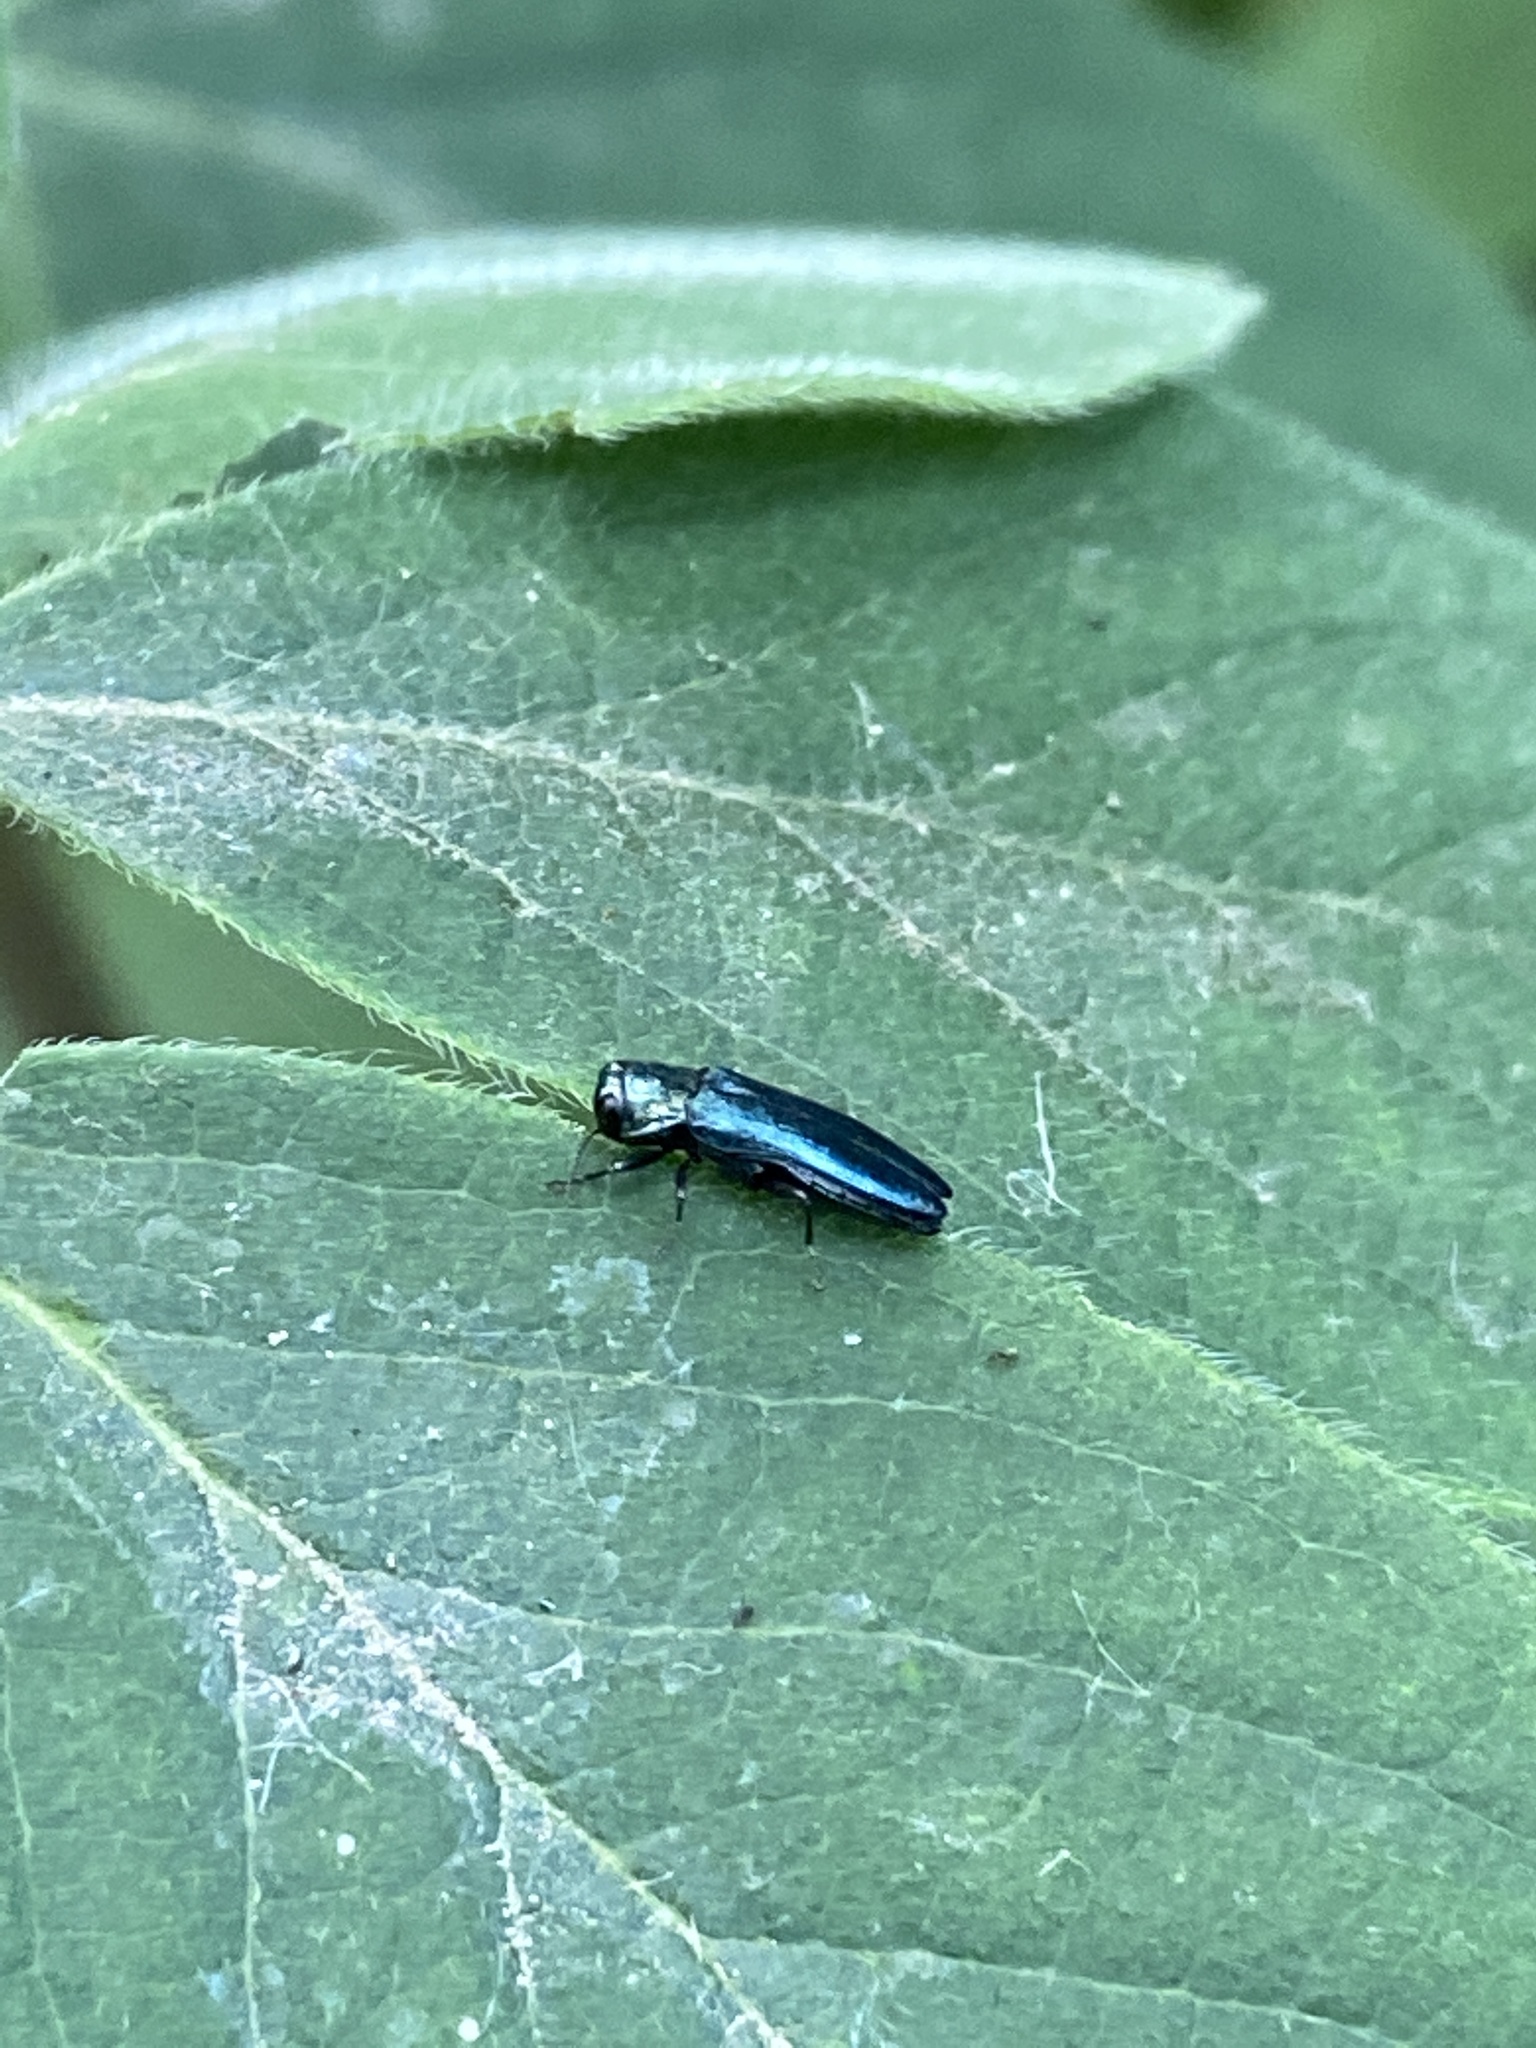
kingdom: Animalia
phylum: Arthropoda
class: Insecta
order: Coleoptera
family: Buprestidae
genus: Agrilus
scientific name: Agrilus cyanescens
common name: Bluish borer beetle
